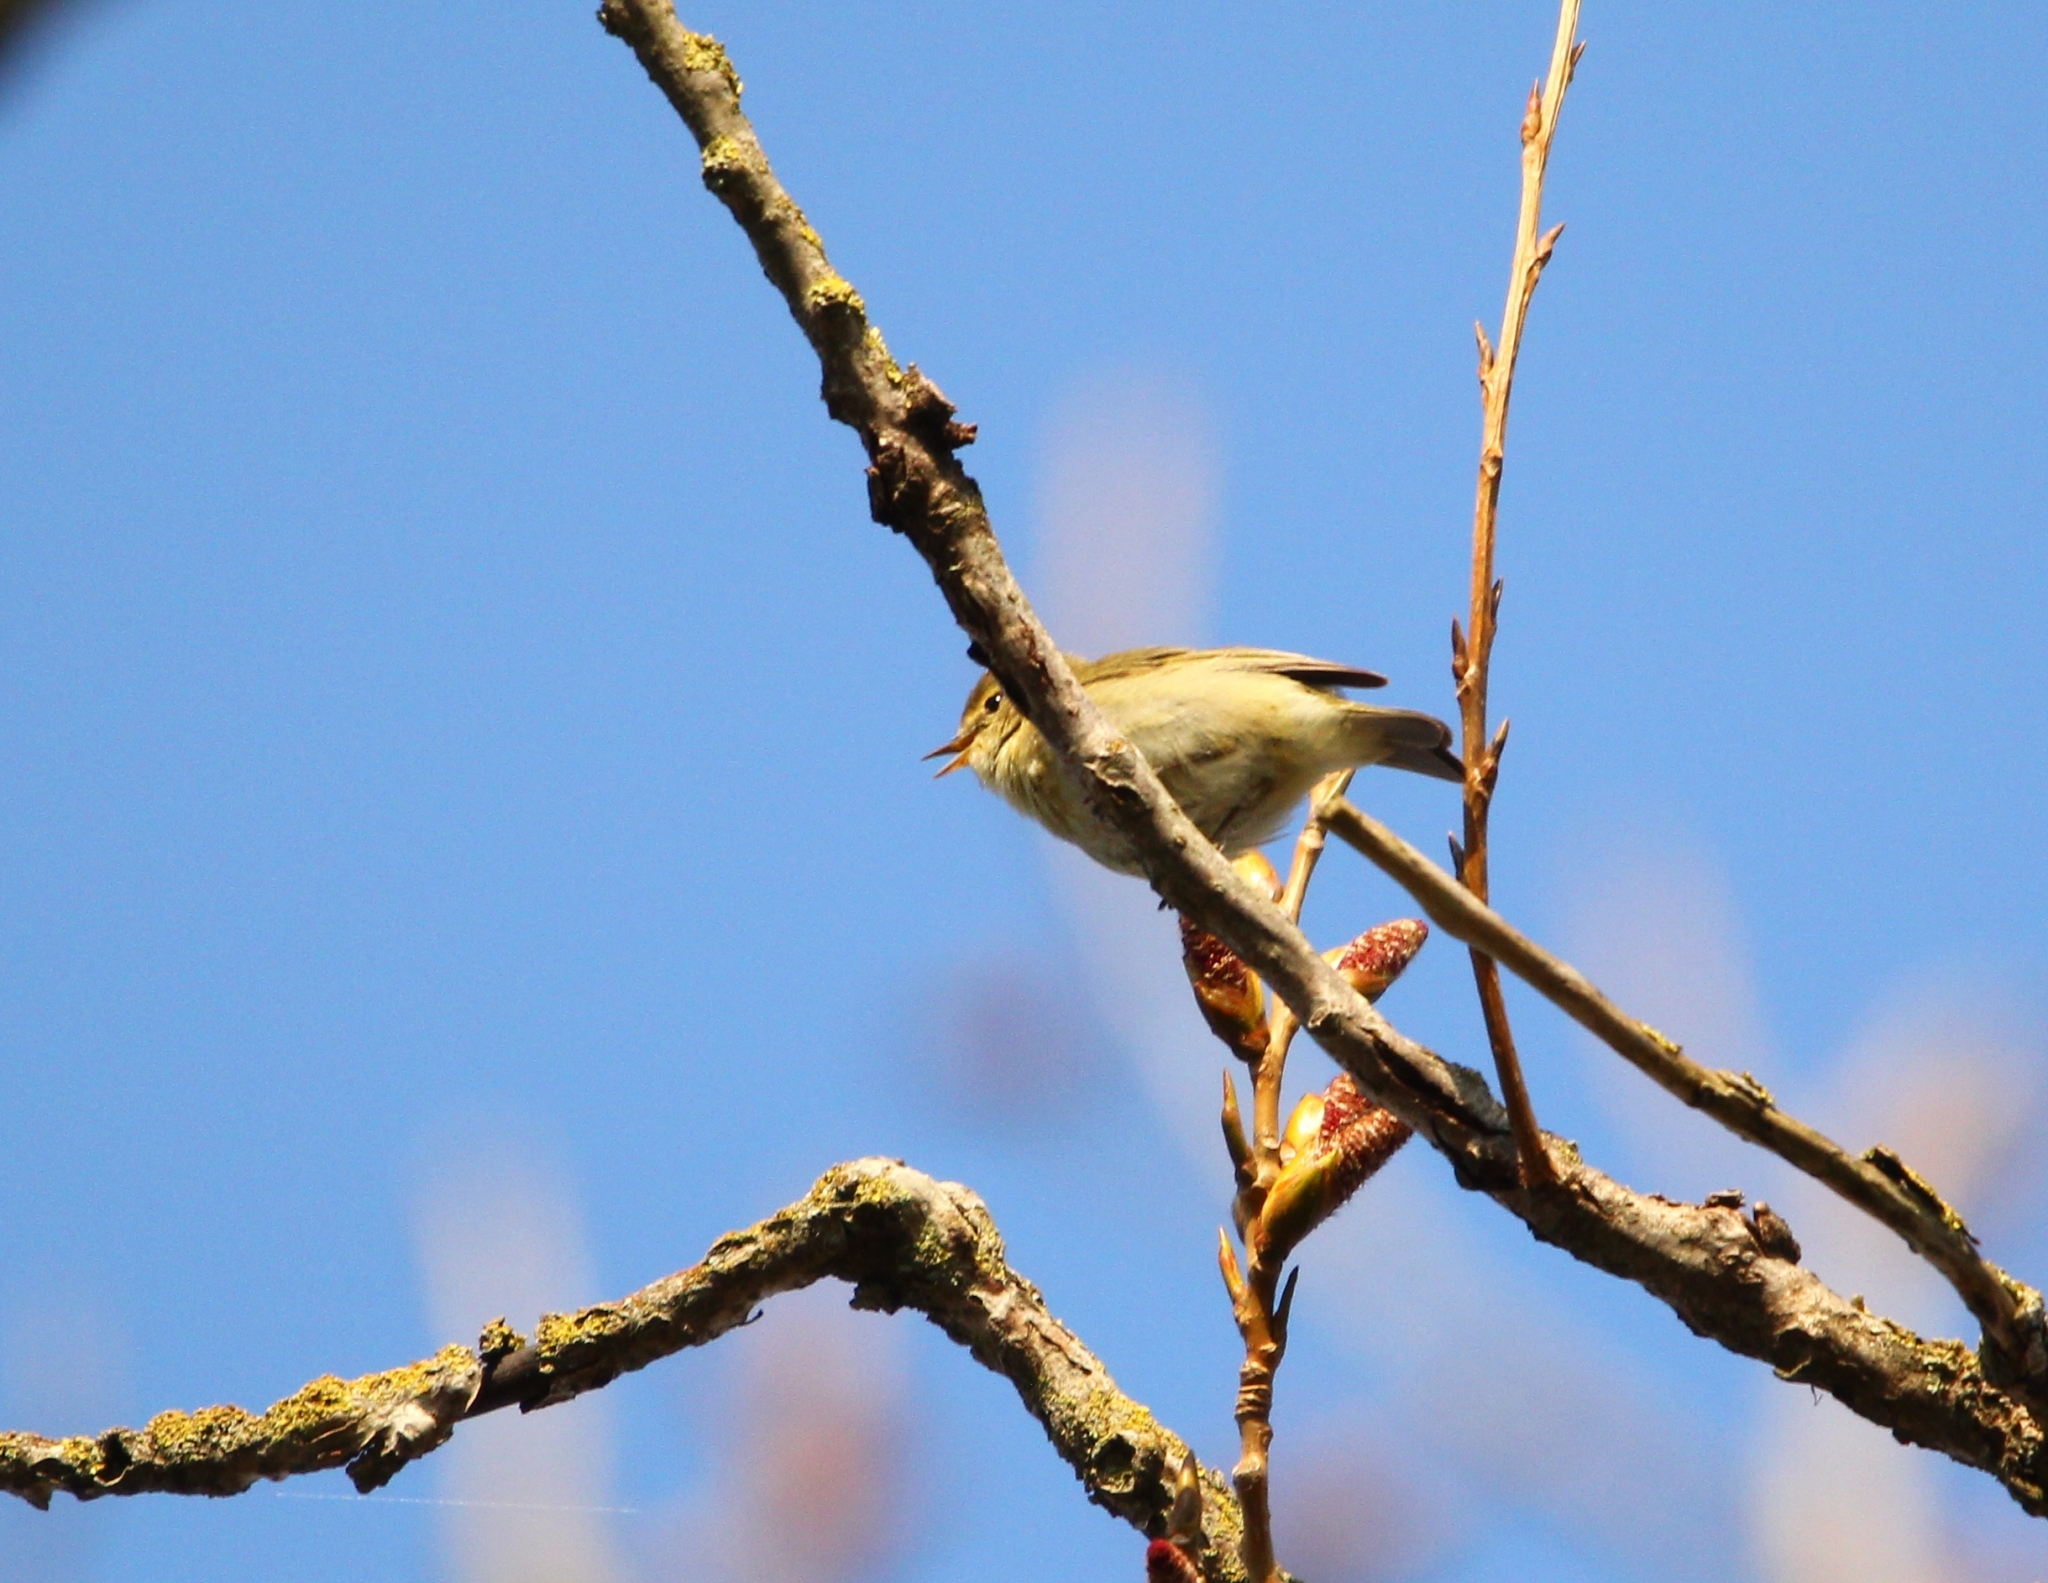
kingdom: Animalia
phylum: Chordata
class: Aves
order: Passeriformes
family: Phylloscopidae
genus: Phylloscopus
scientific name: Phylloscopus collybita
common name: Common chiffchaff
